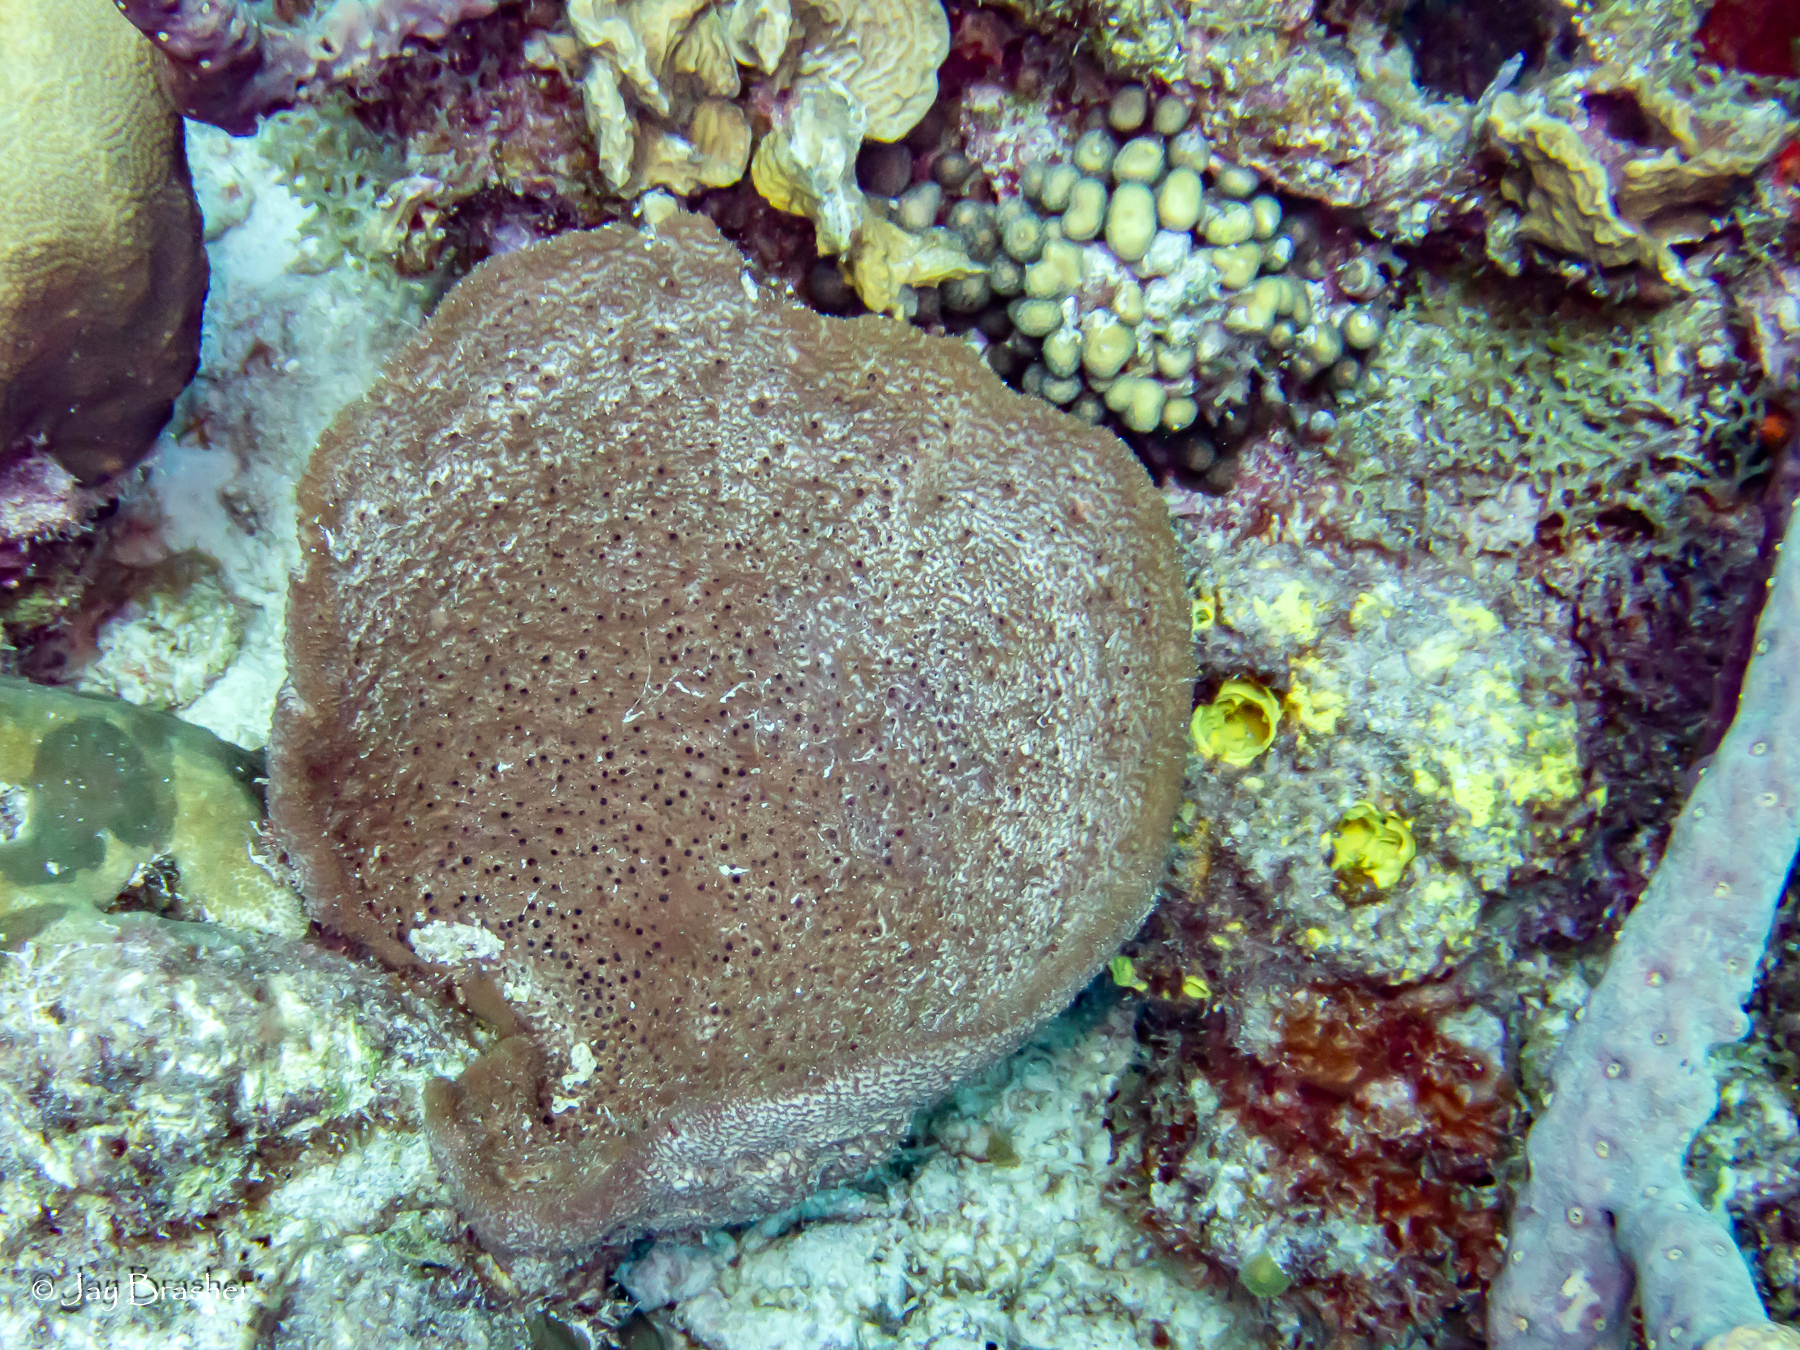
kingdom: Animalia
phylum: Cnidaria
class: Anthozoa
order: Scleractinia
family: Pocilloporidae
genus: Madracis
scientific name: Madracis decactis
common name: Ten-ray star coral
